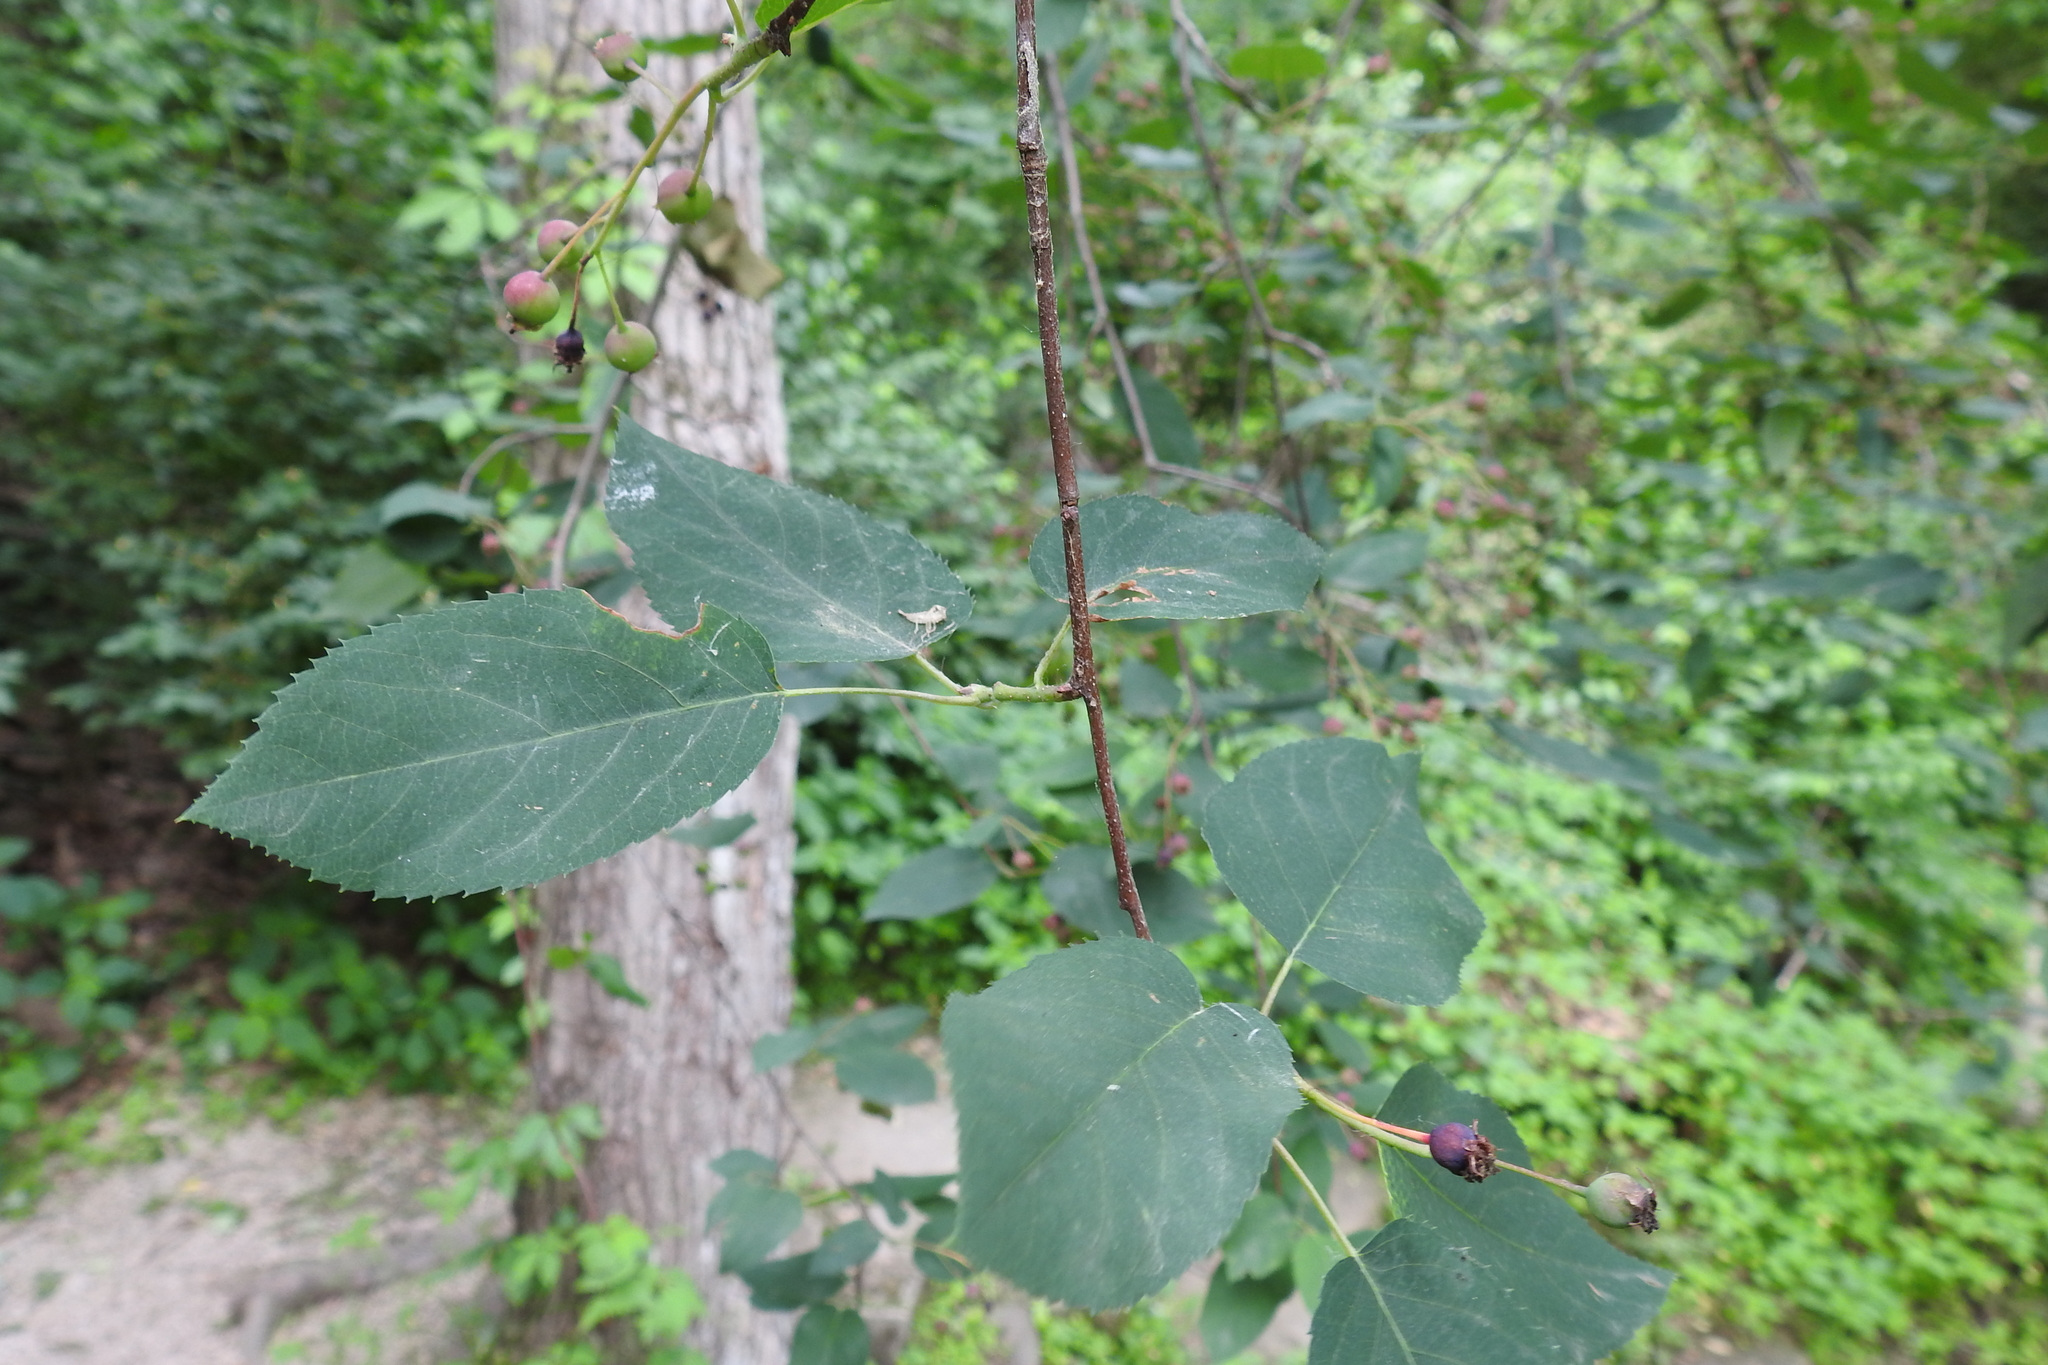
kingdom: Plantae
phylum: Tracheophyta
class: Magnoliopsida
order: Rosales
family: Rosaceae
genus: Amelanchier
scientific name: Amelanchier arborea
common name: Downy serviceberry
